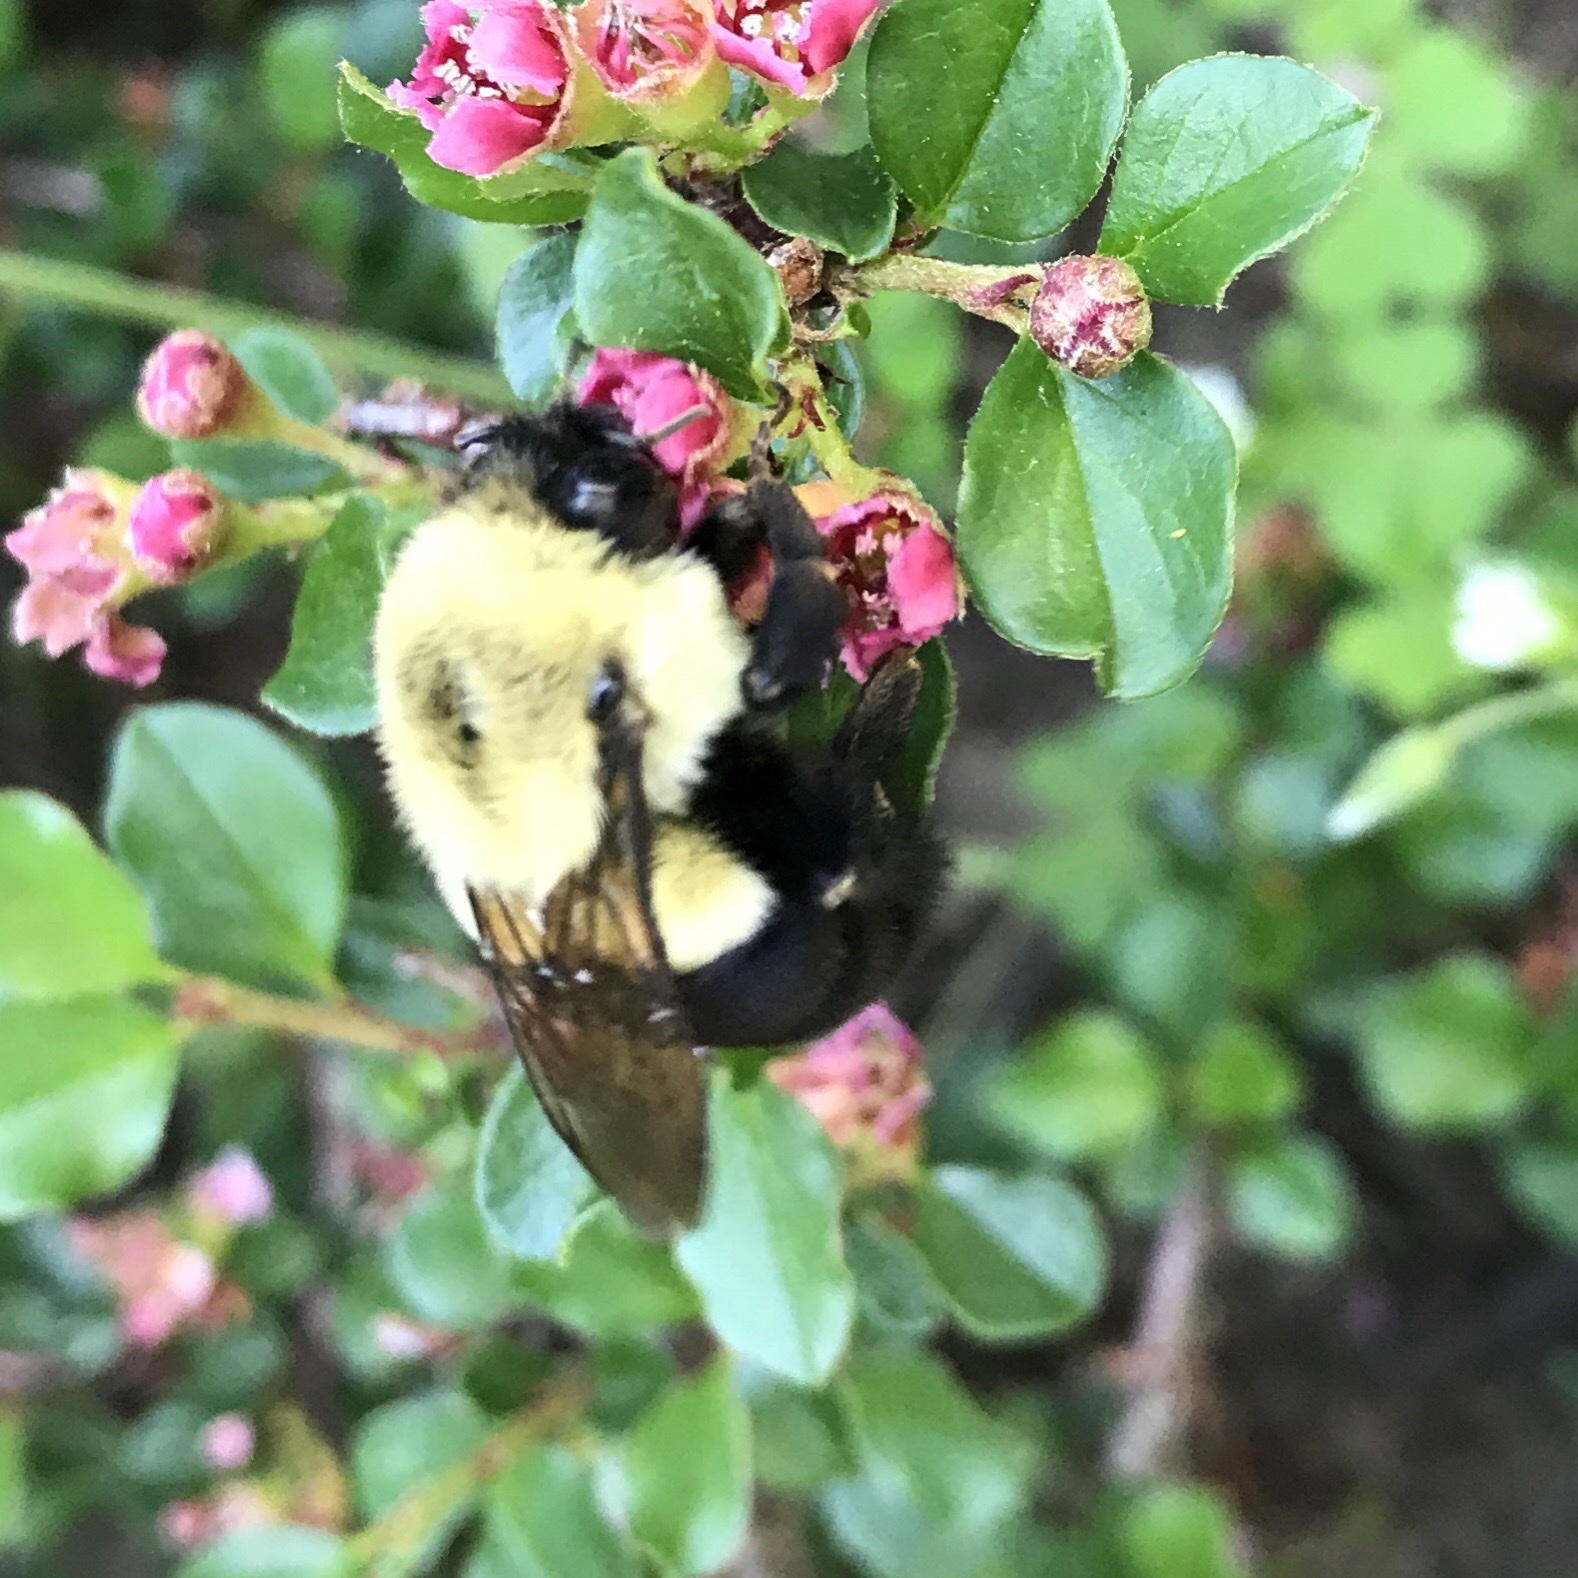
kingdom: Animalia
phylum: Arthropoda
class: Insecta
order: Hymenoptera
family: Apidae
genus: Bombus
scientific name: Bombus impatiens
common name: Common eastern bumble bee
